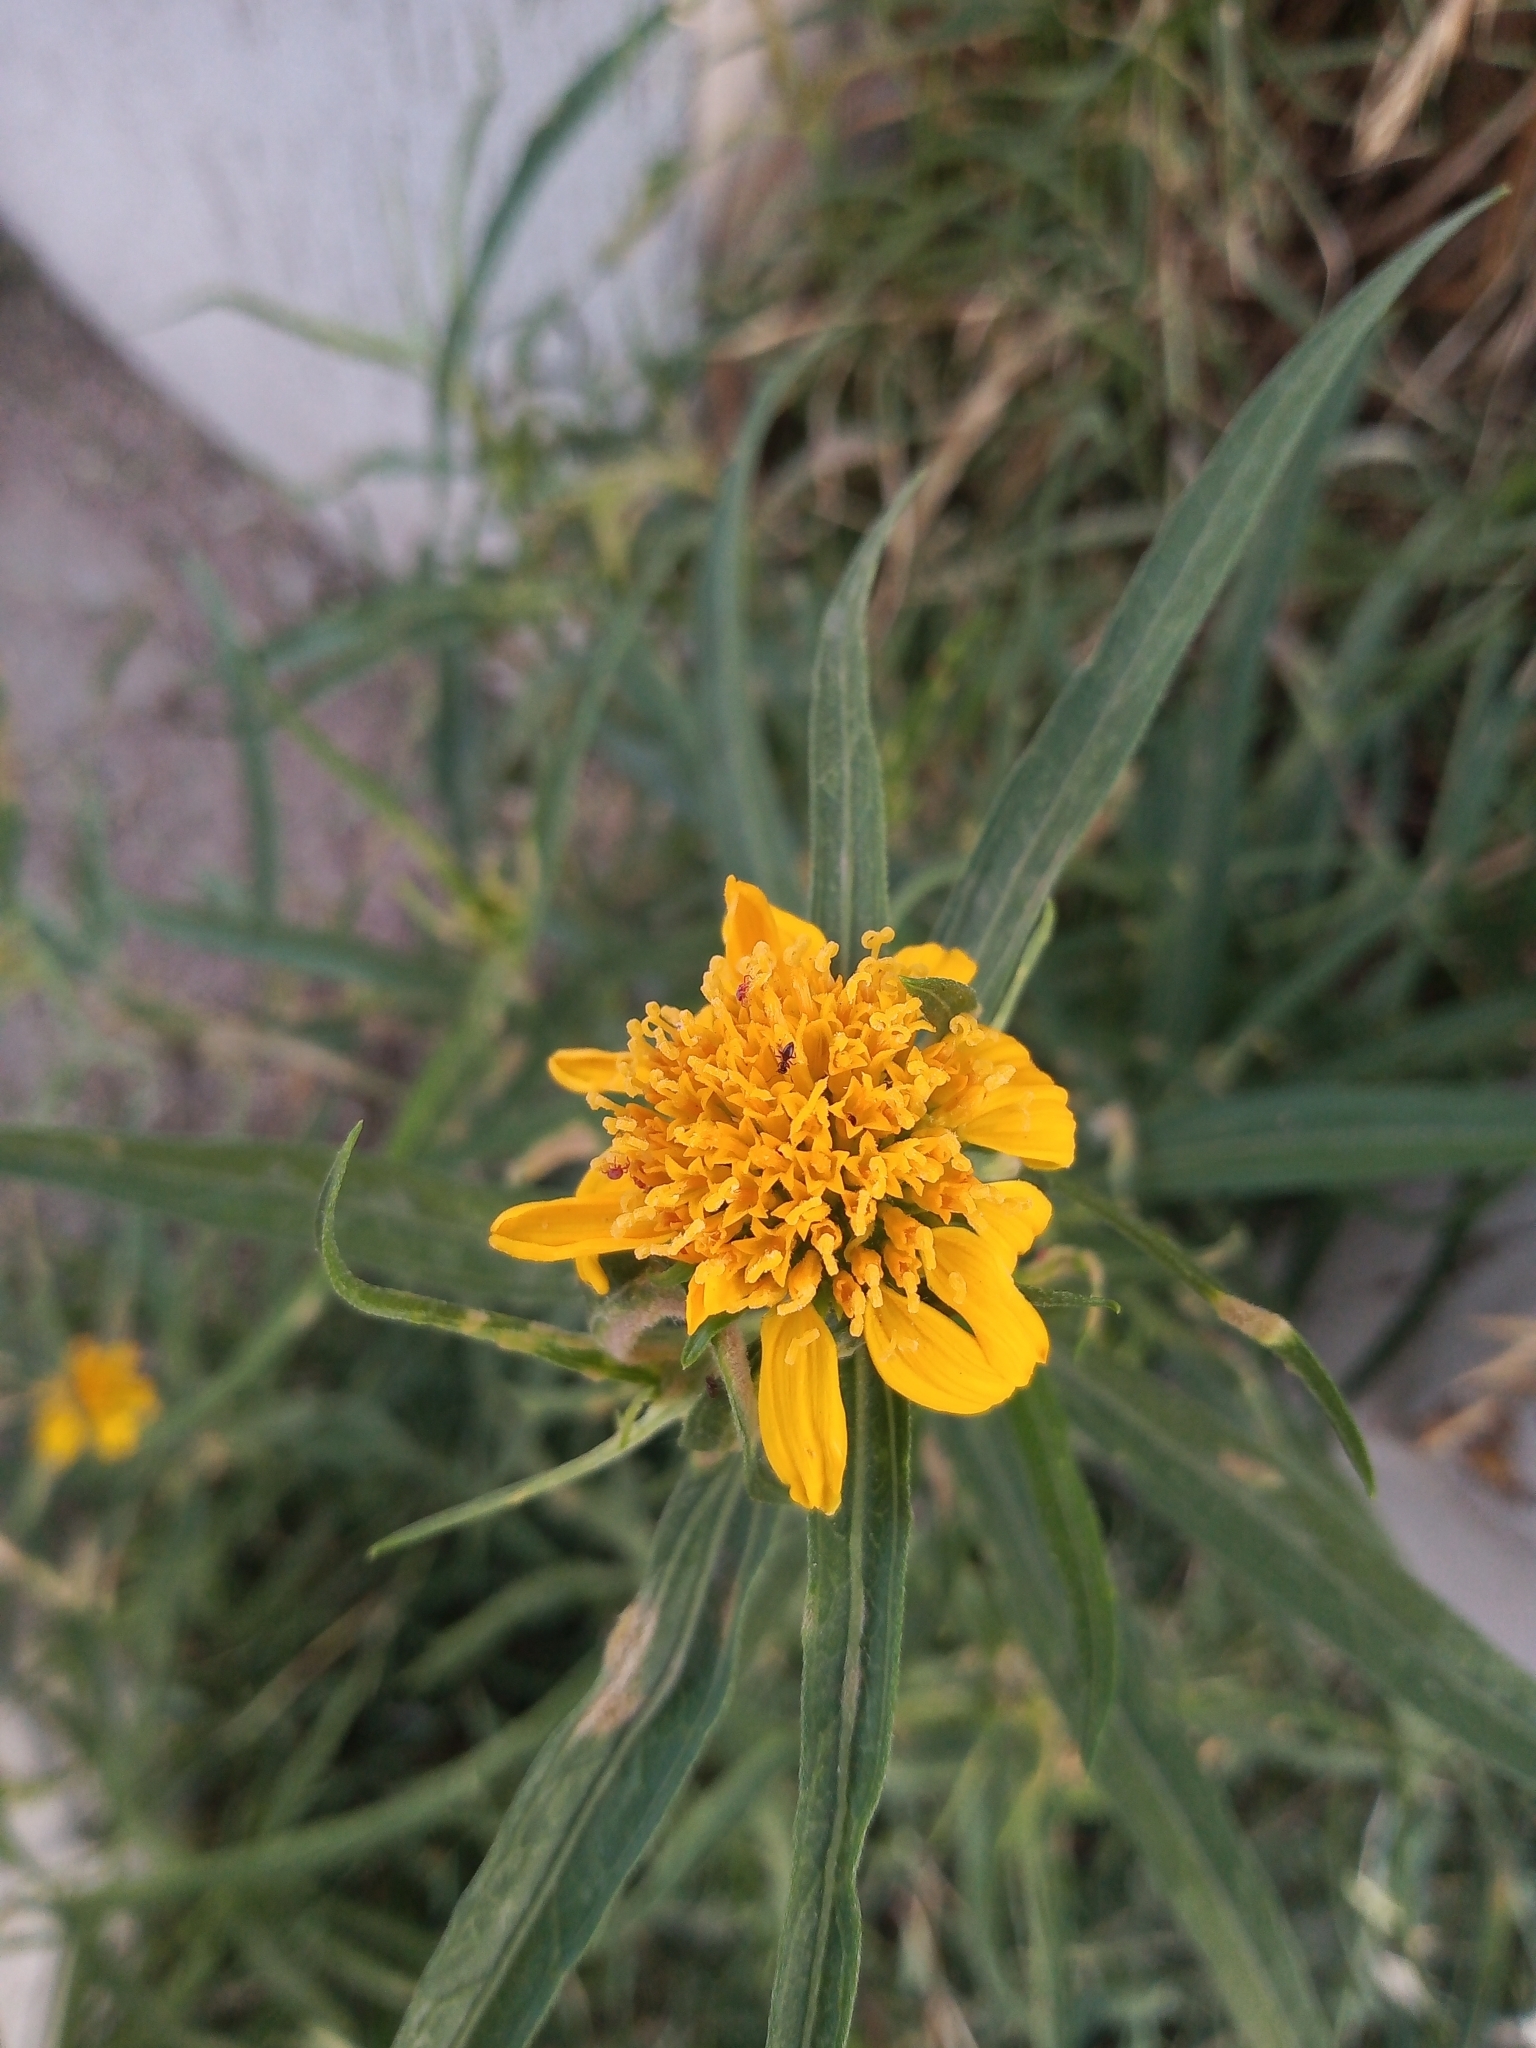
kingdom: Plantae
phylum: Tracheophyta
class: Magnoliopsida
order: Asterales
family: Asteraceae
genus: Pascalia
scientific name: Pascalia glauca
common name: Beach creeping oxeye
